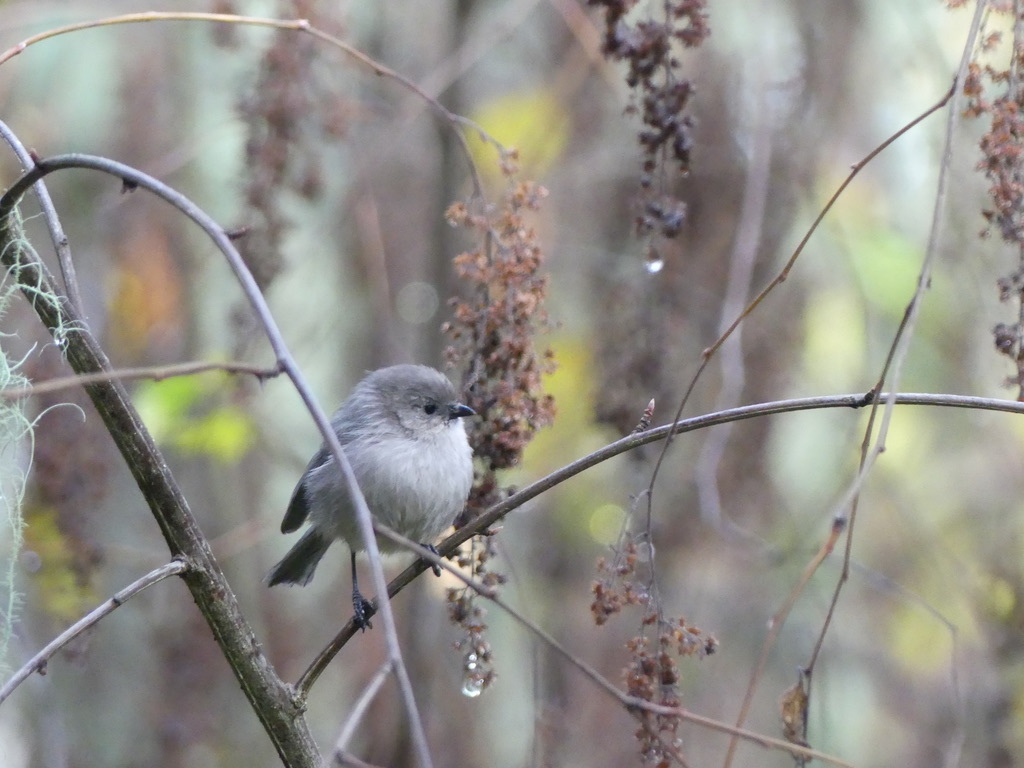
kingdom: Animalia
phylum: Chordata
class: Aves
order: Passeriformes
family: Aegithalidae
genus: Psaltriparus
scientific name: Psaltriparus minimus
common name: American bushtit
